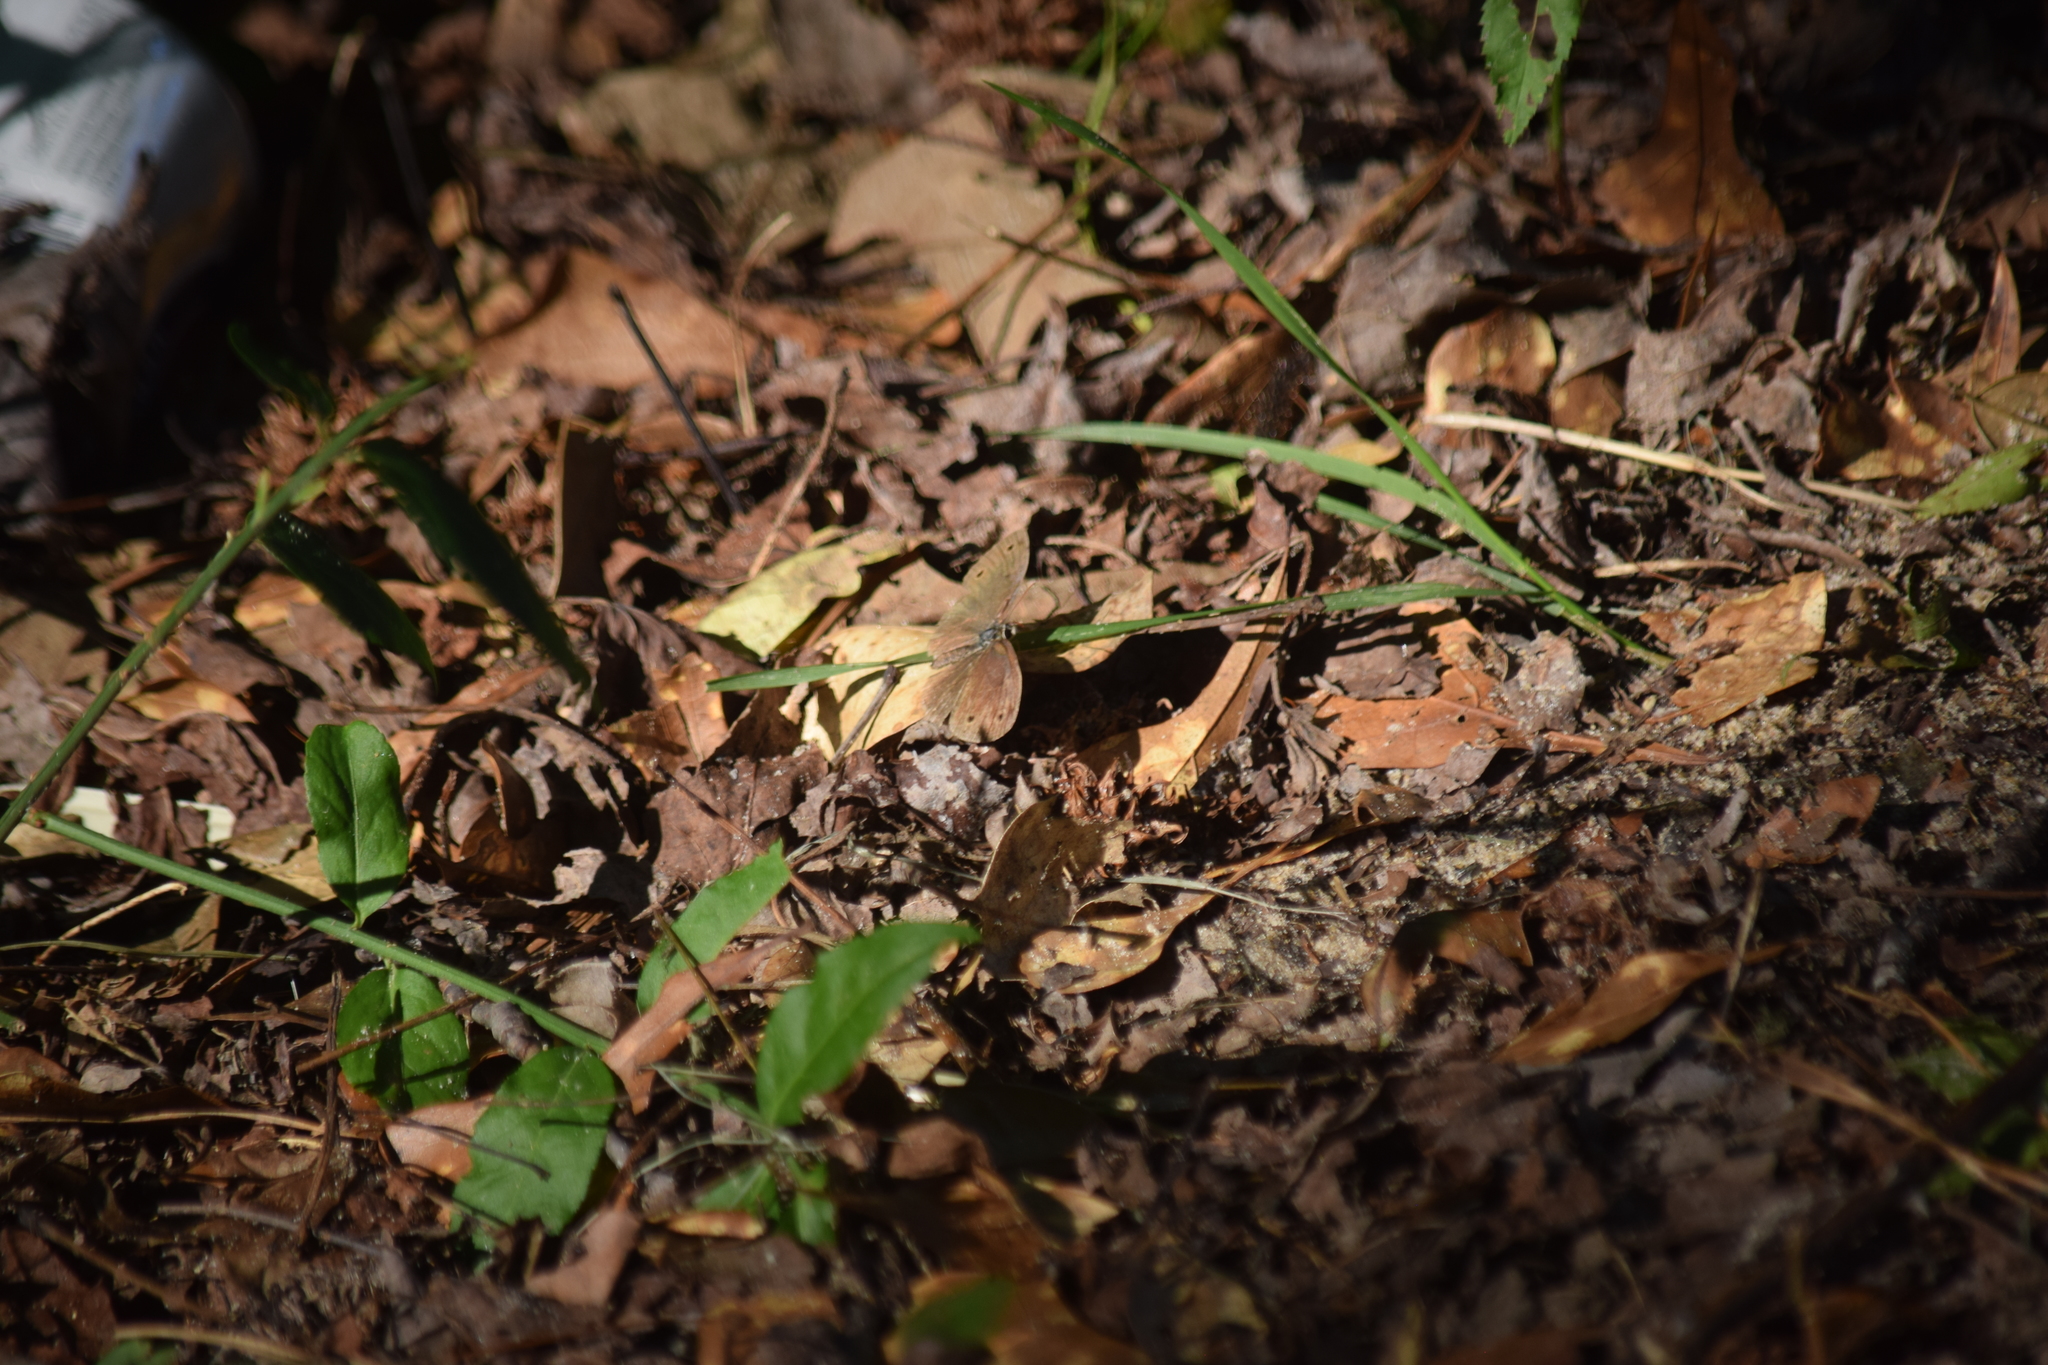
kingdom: Animalia
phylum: Arthropoda
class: Insecta
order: Lepidoptera
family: Nymphalidae
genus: Euptychia
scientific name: Euptychia cymela
